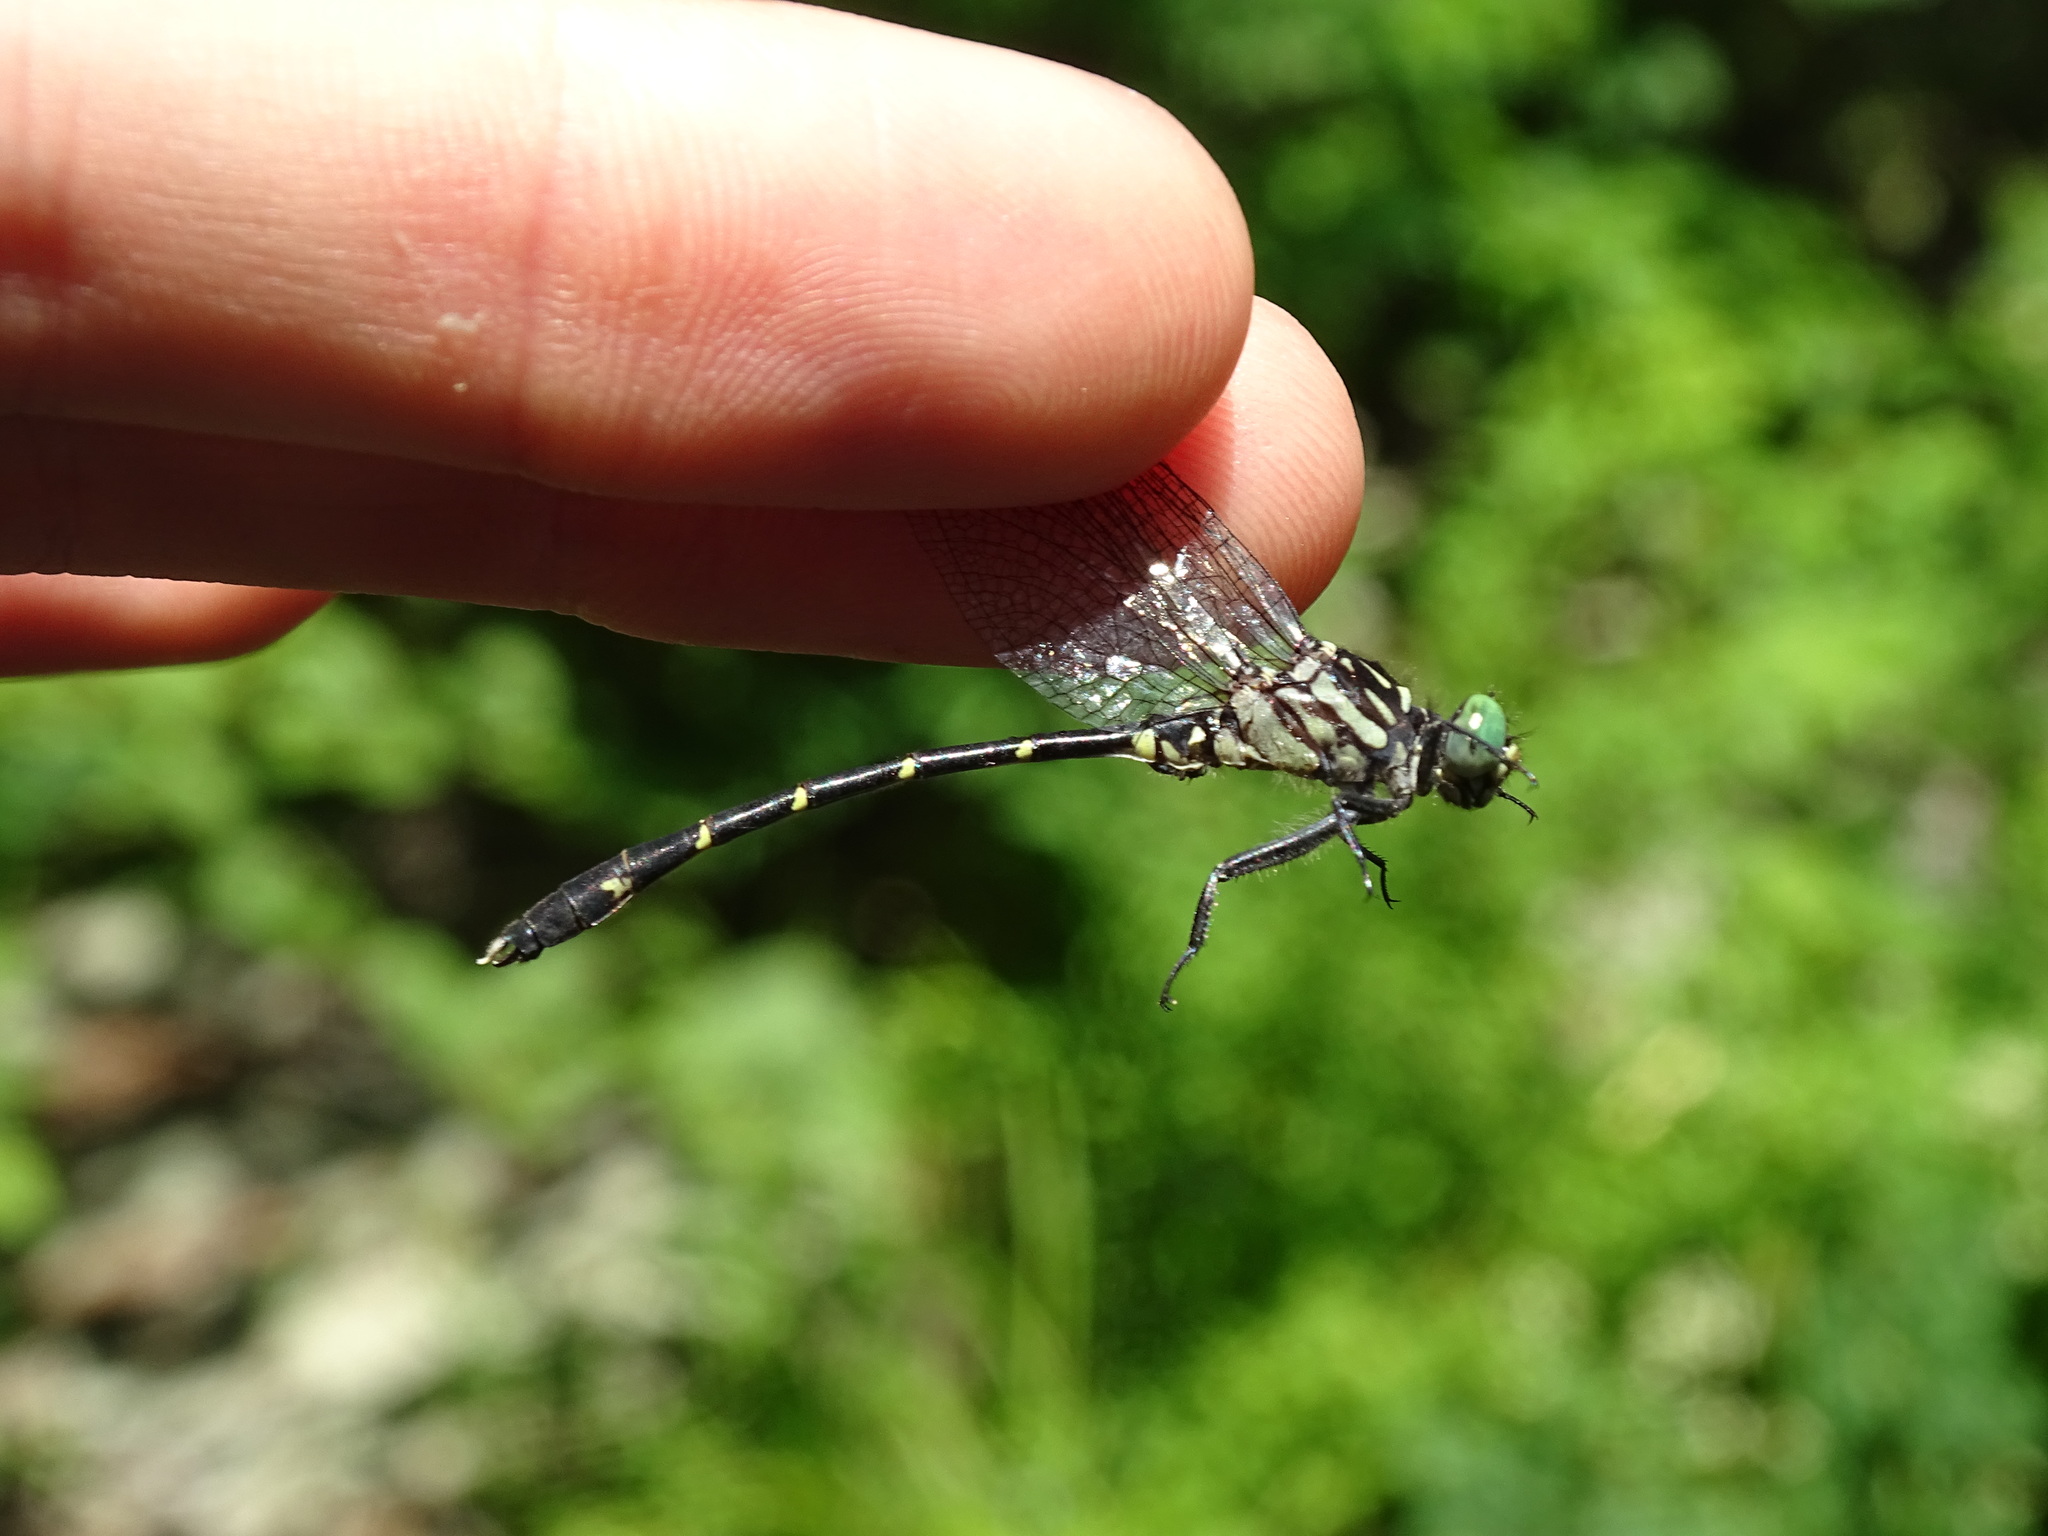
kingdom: Animalia
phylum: Arthropoda
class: Insecta
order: Odonata
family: Gomphidae
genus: Stylogomphus
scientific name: Stylogomphus albistylus
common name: Eastern least clubtail
